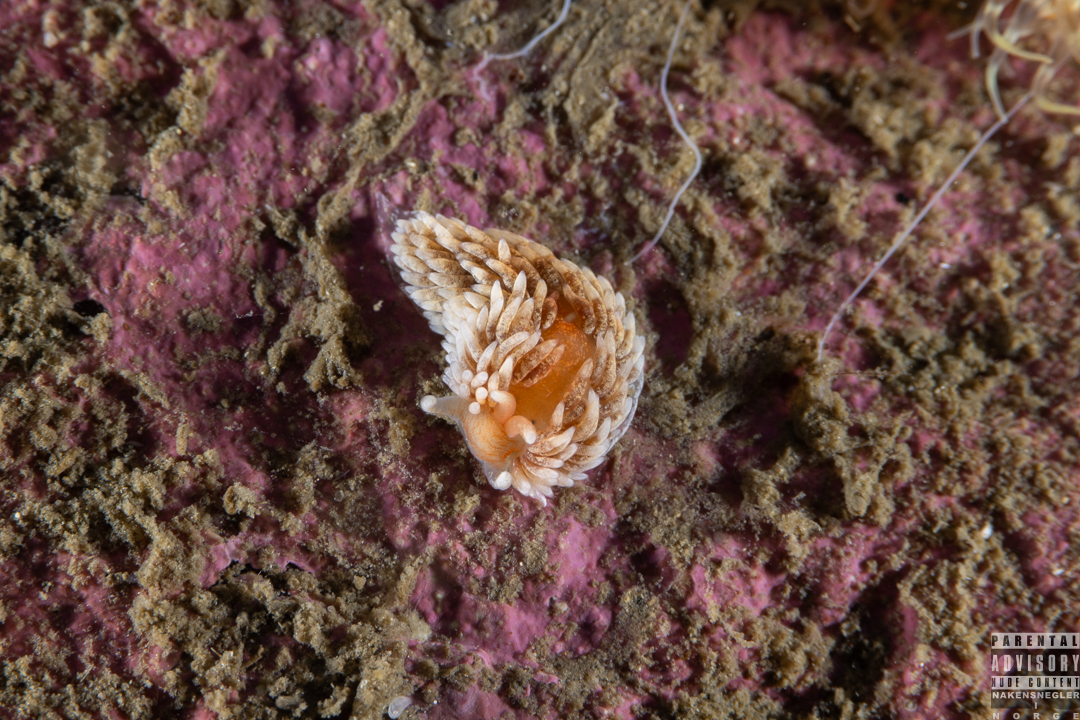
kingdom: Animalia
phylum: Mollusca
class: Gastropoda
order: Nudibranchia
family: Aeolidiidae
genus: Aeolidiella
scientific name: Aeolidiella glauca
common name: Orange-brown aeolid
